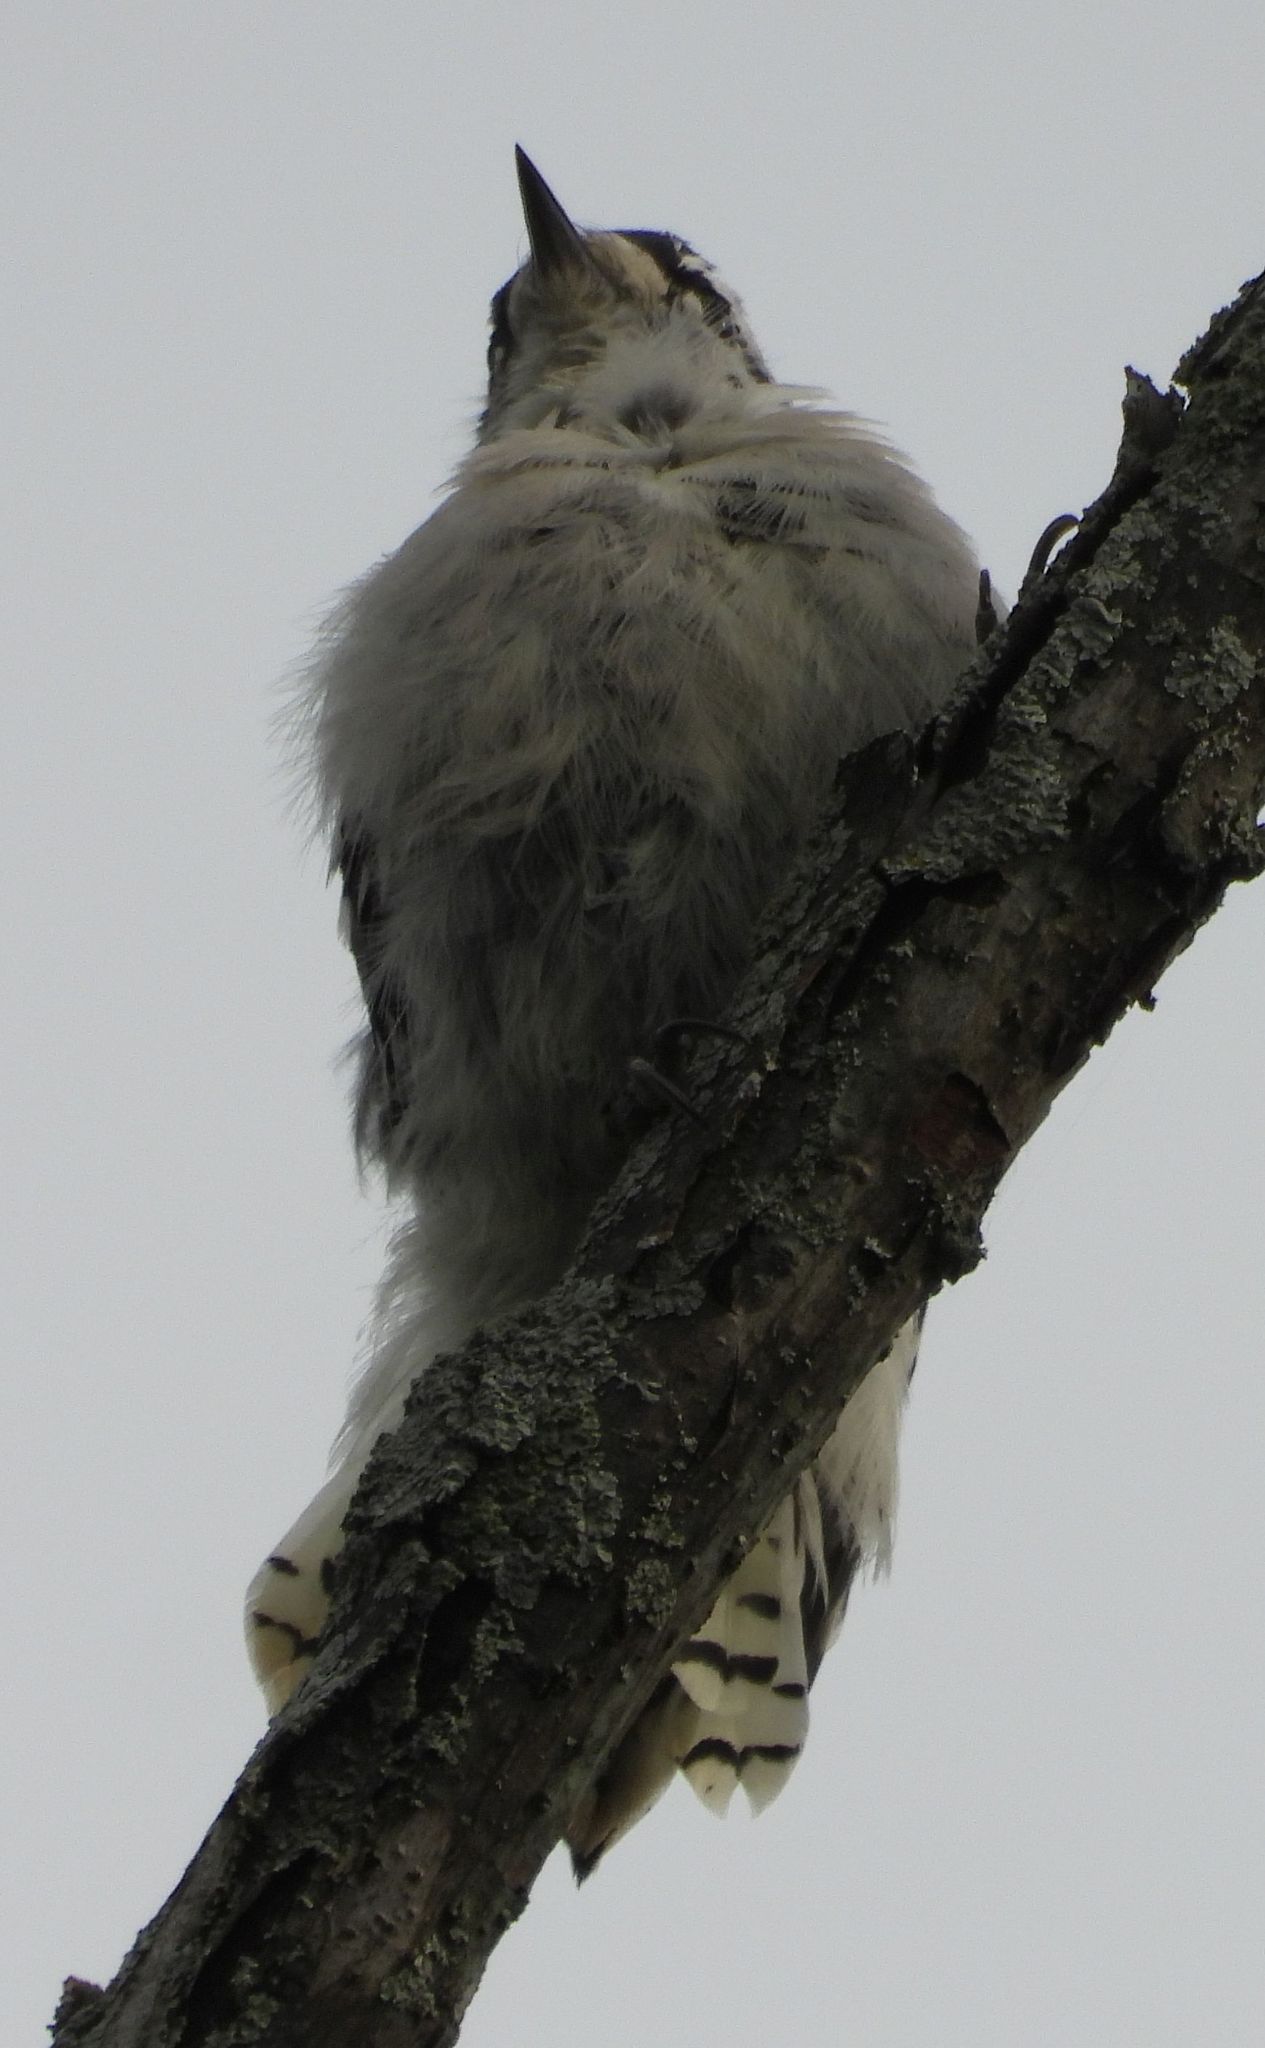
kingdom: Animalia
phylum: Chordata
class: Aves
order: Piciformes
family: Picidae
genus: Dryobates
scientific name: Dryobates pubescens
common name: Downy woodpecker
